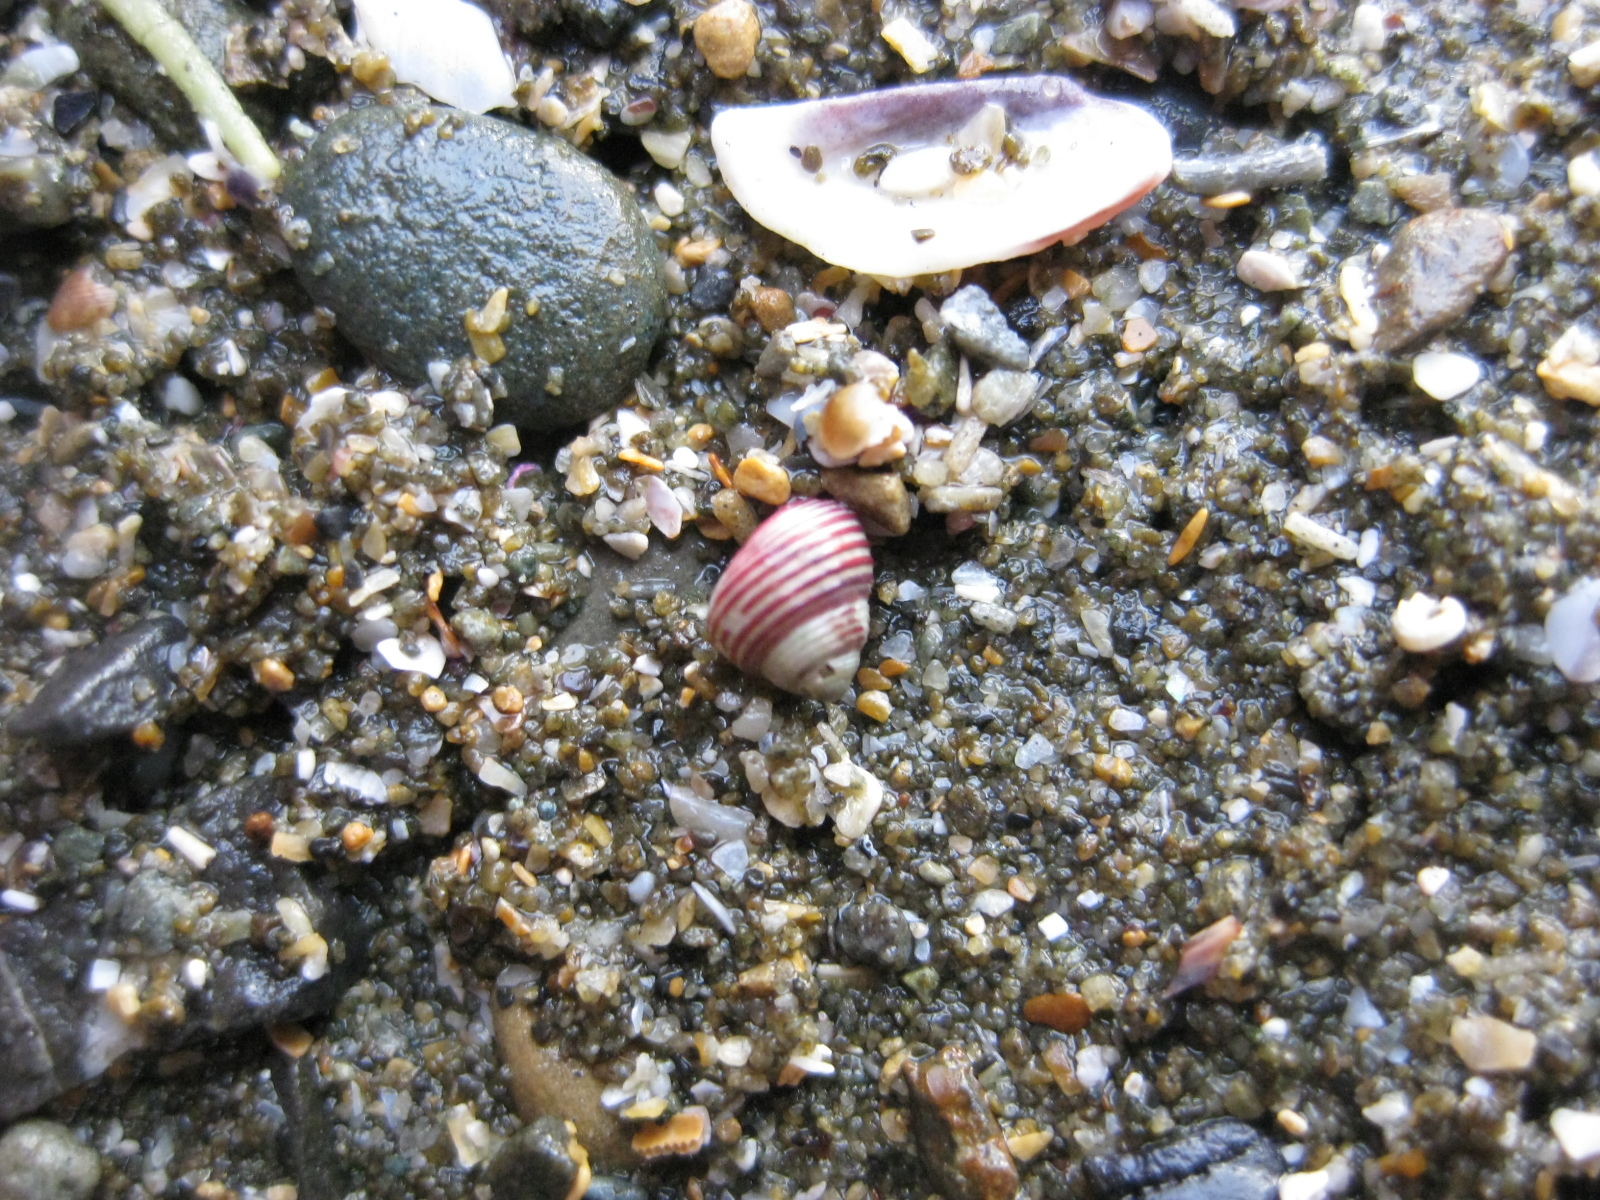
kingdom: Animalia
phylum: Mollusca
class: Gastropoda
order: Trochida
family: Trochidae
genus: Roseaplagis
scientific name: Roseaplagis rufozona
